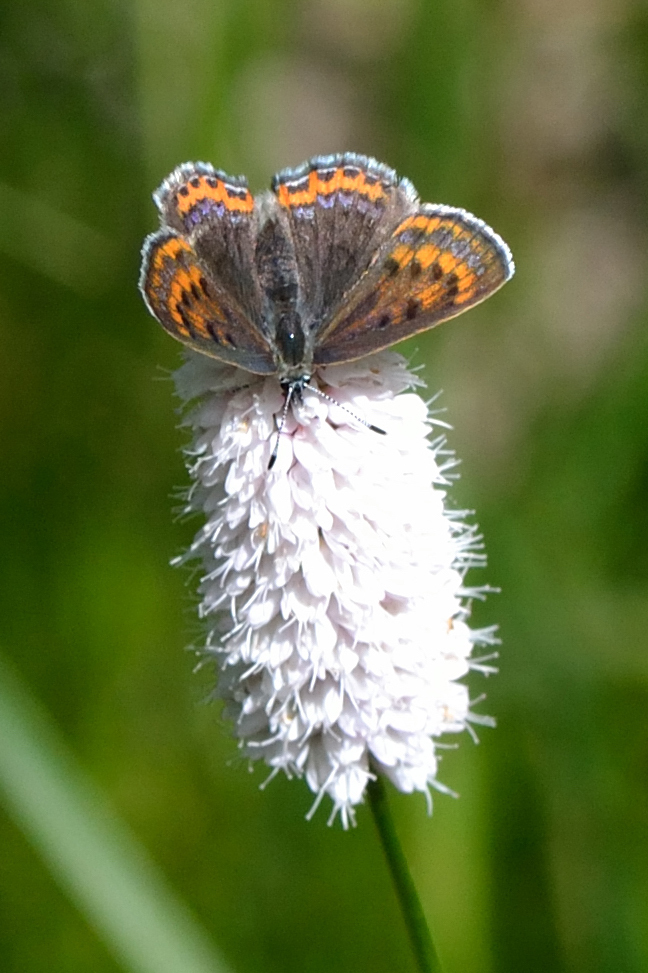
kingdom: Animalia
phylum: Arthropoda
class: Insecta
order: Lepidoptera
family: Lycaenidae
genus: Helleia
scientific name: Helleia helle
